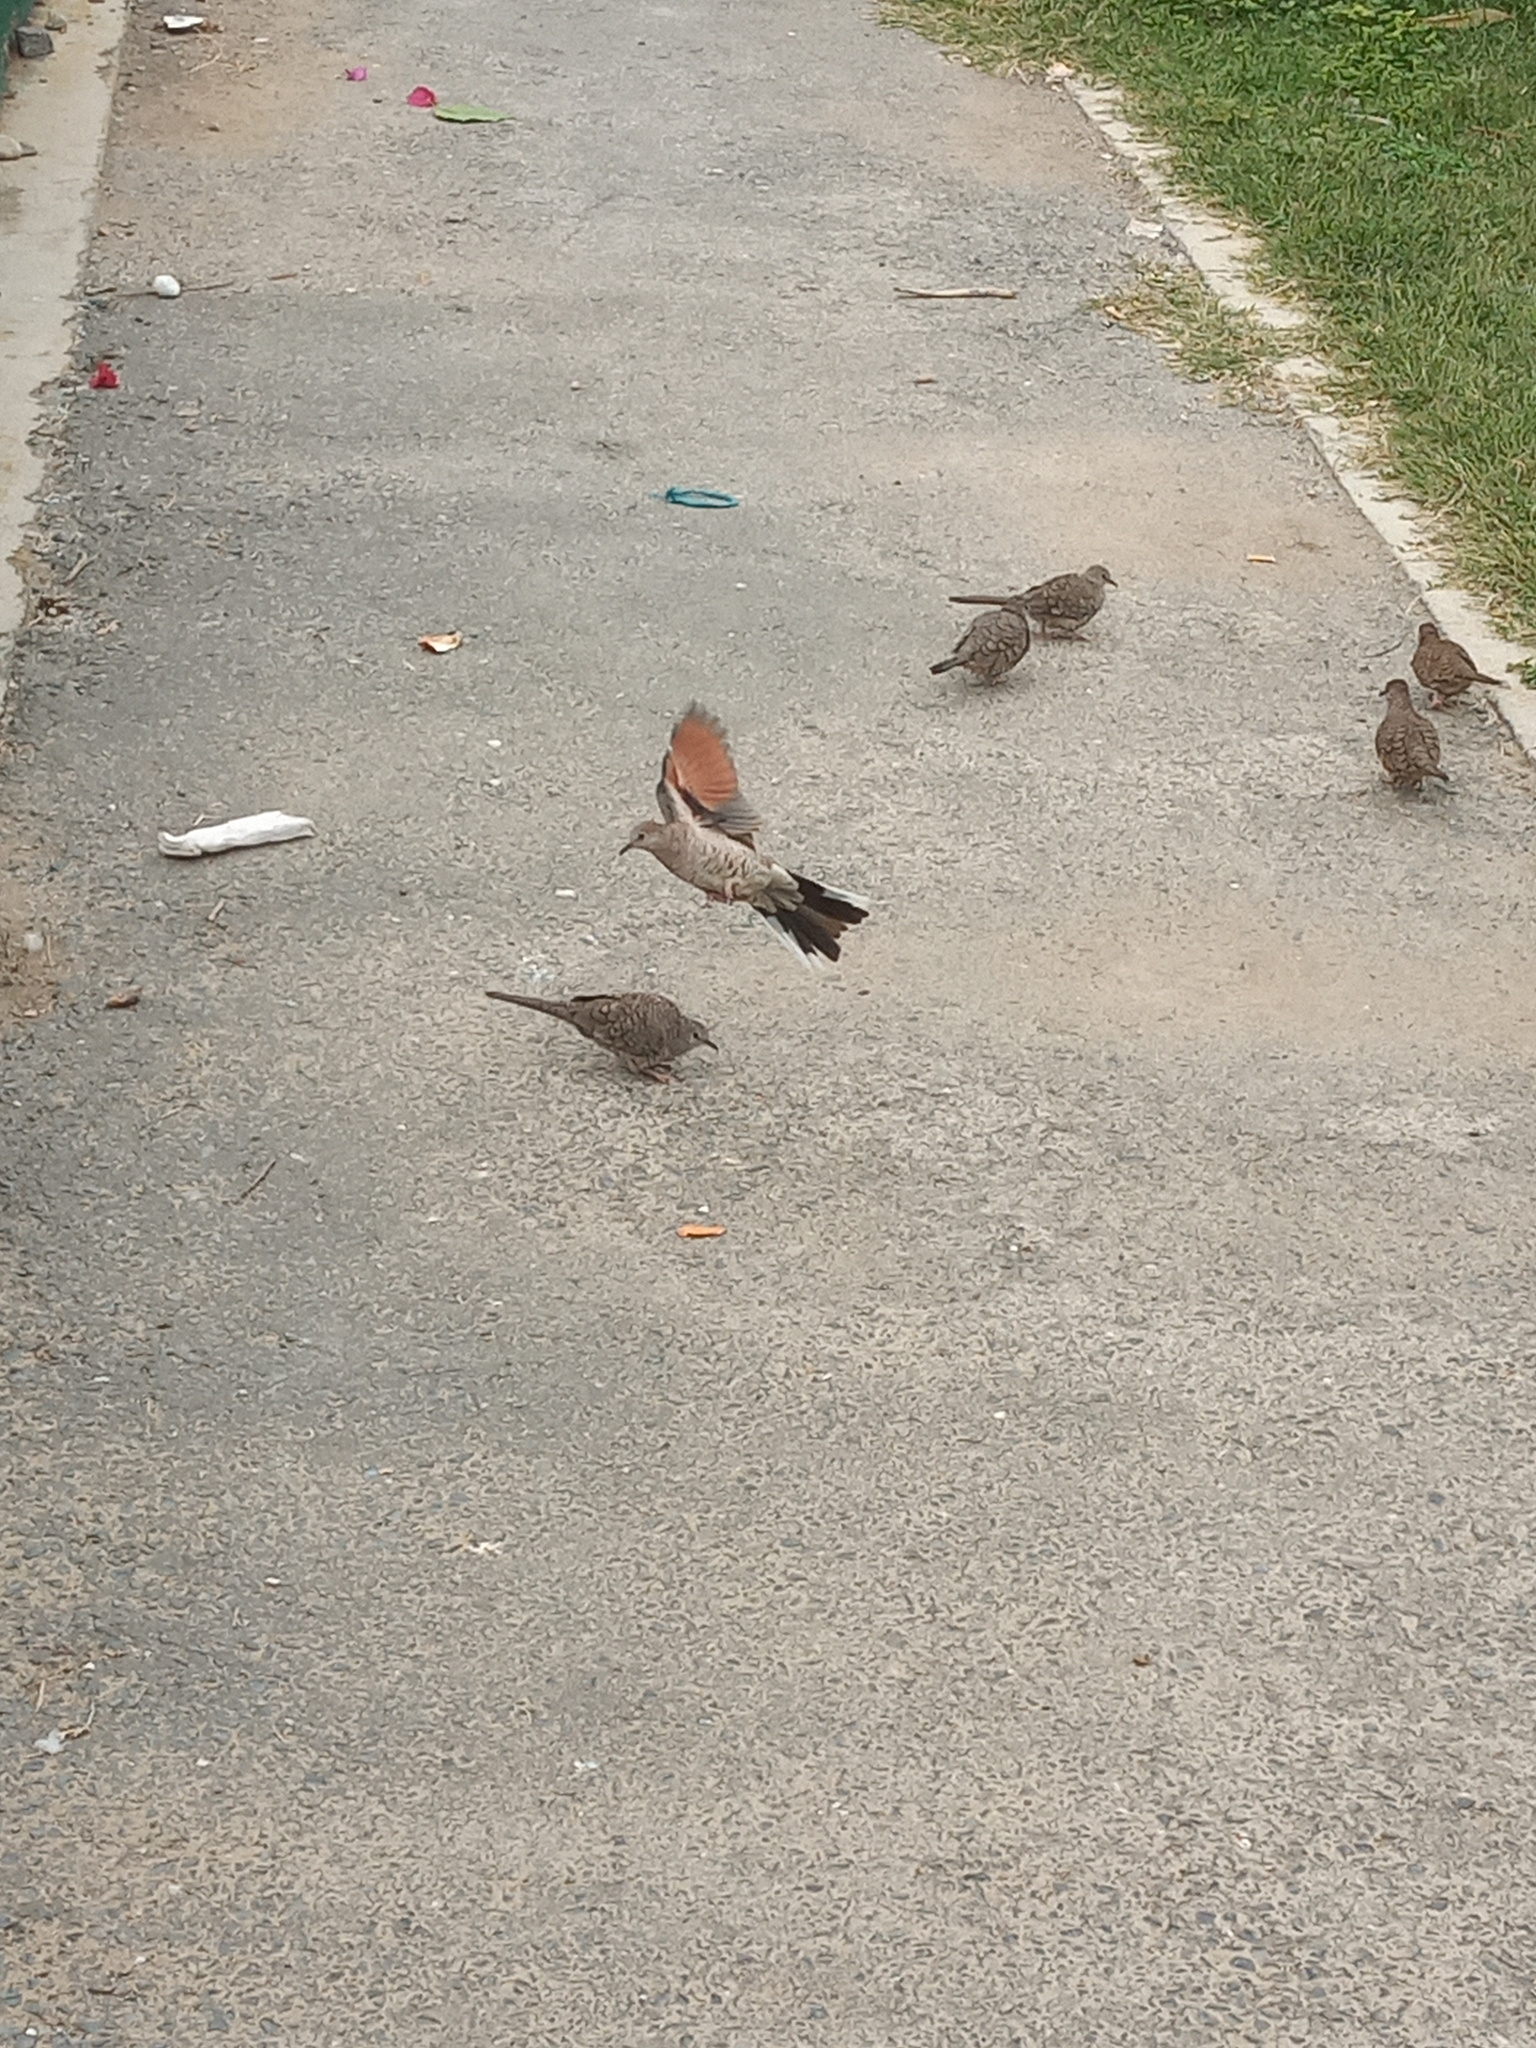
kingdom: Animalia
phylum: Chordata
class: Aves
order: Columbiformes
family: Columbidae
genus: Columbina
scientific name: Columbina inca
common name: Inca dove
